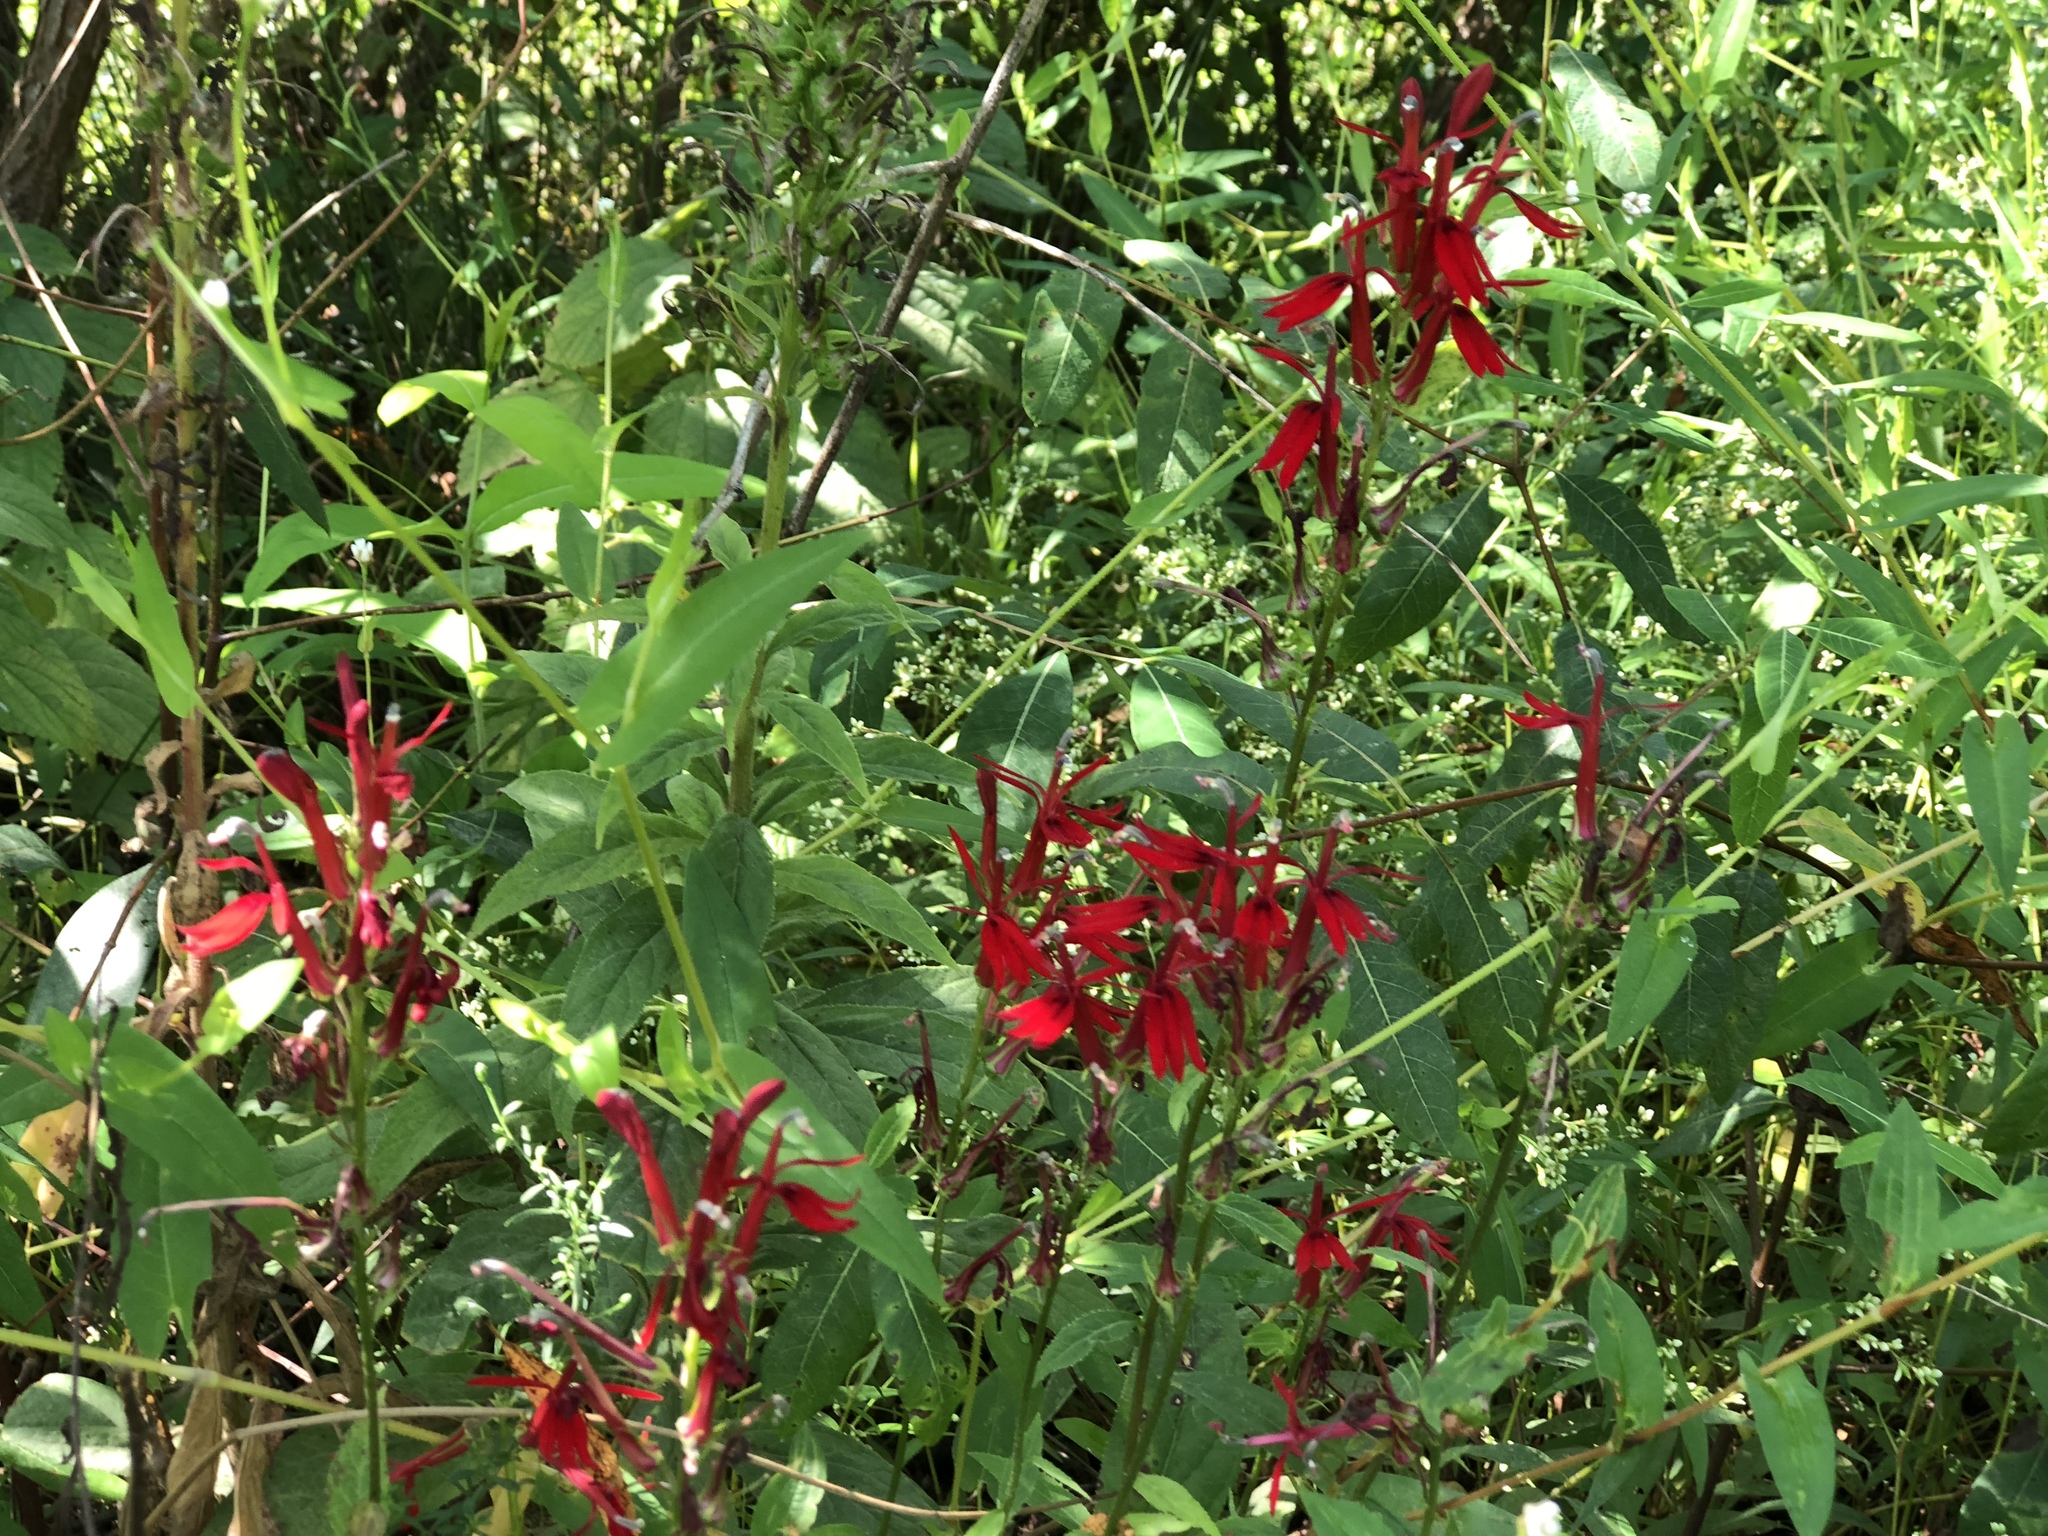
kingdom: Plantae
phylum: Tracheophyta
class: Magnoliopsida
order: Asterales
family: Campanulaceae
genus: Lobelia
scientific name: Lobelia cardinalis
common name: Cardinal flower
